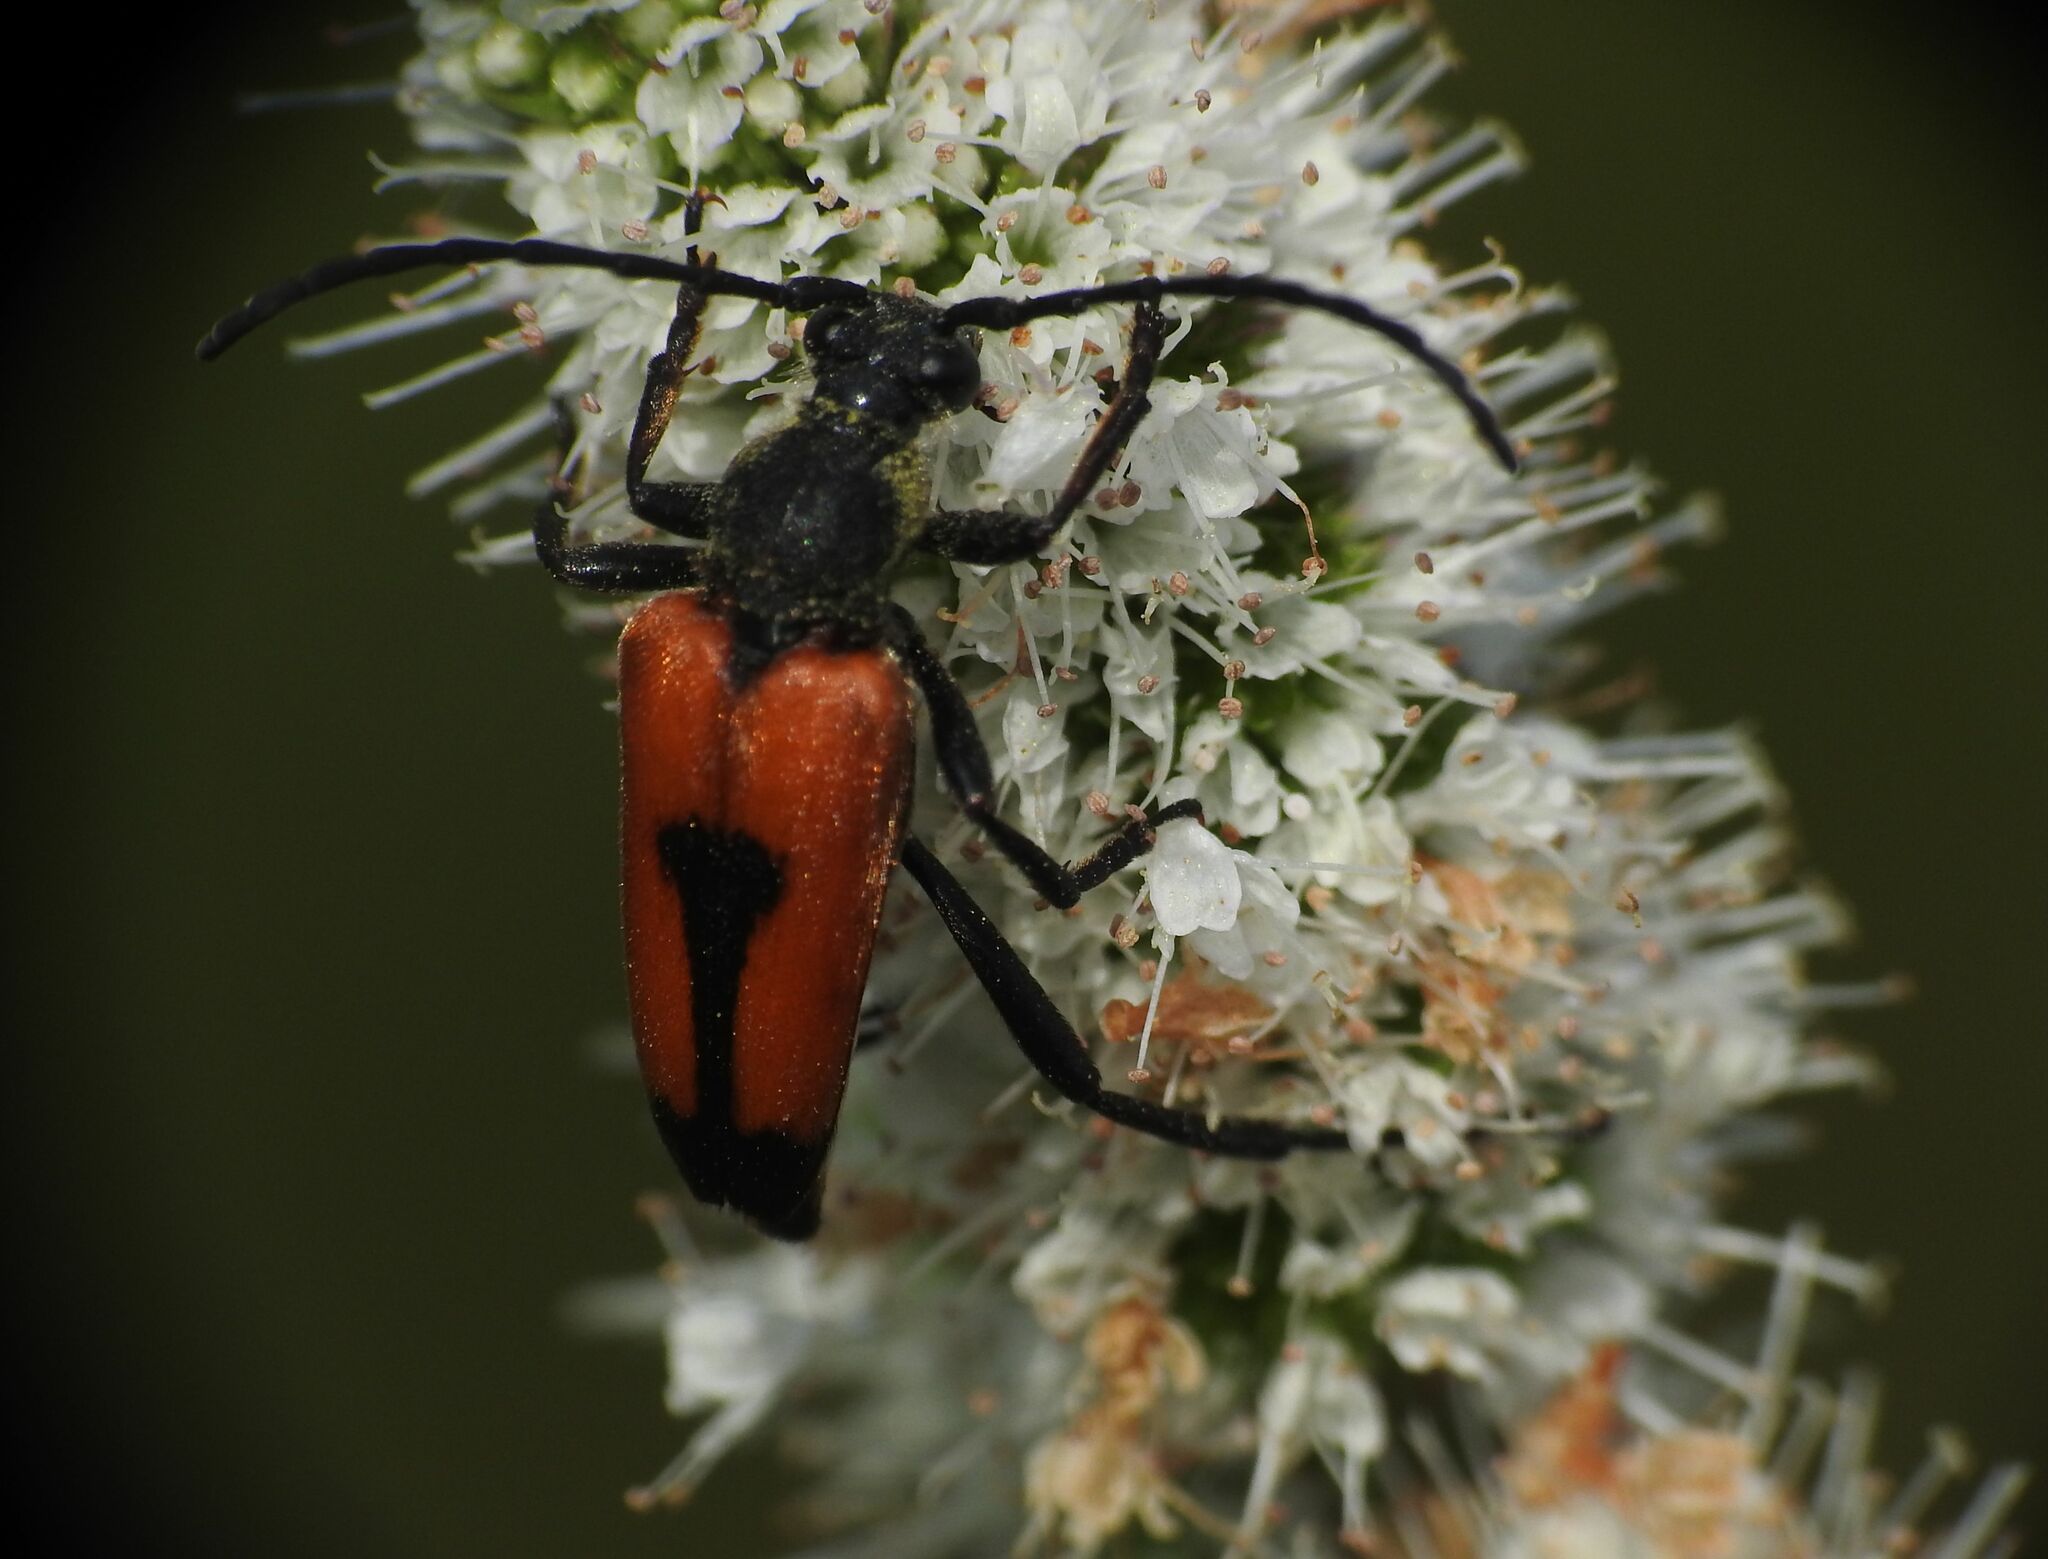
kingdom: Animalia
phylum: Arthropoda
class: Insecta
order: Coleoptera
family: Cerambycidae
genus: Stictoleptura
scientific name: Stictoleptura cordigera
